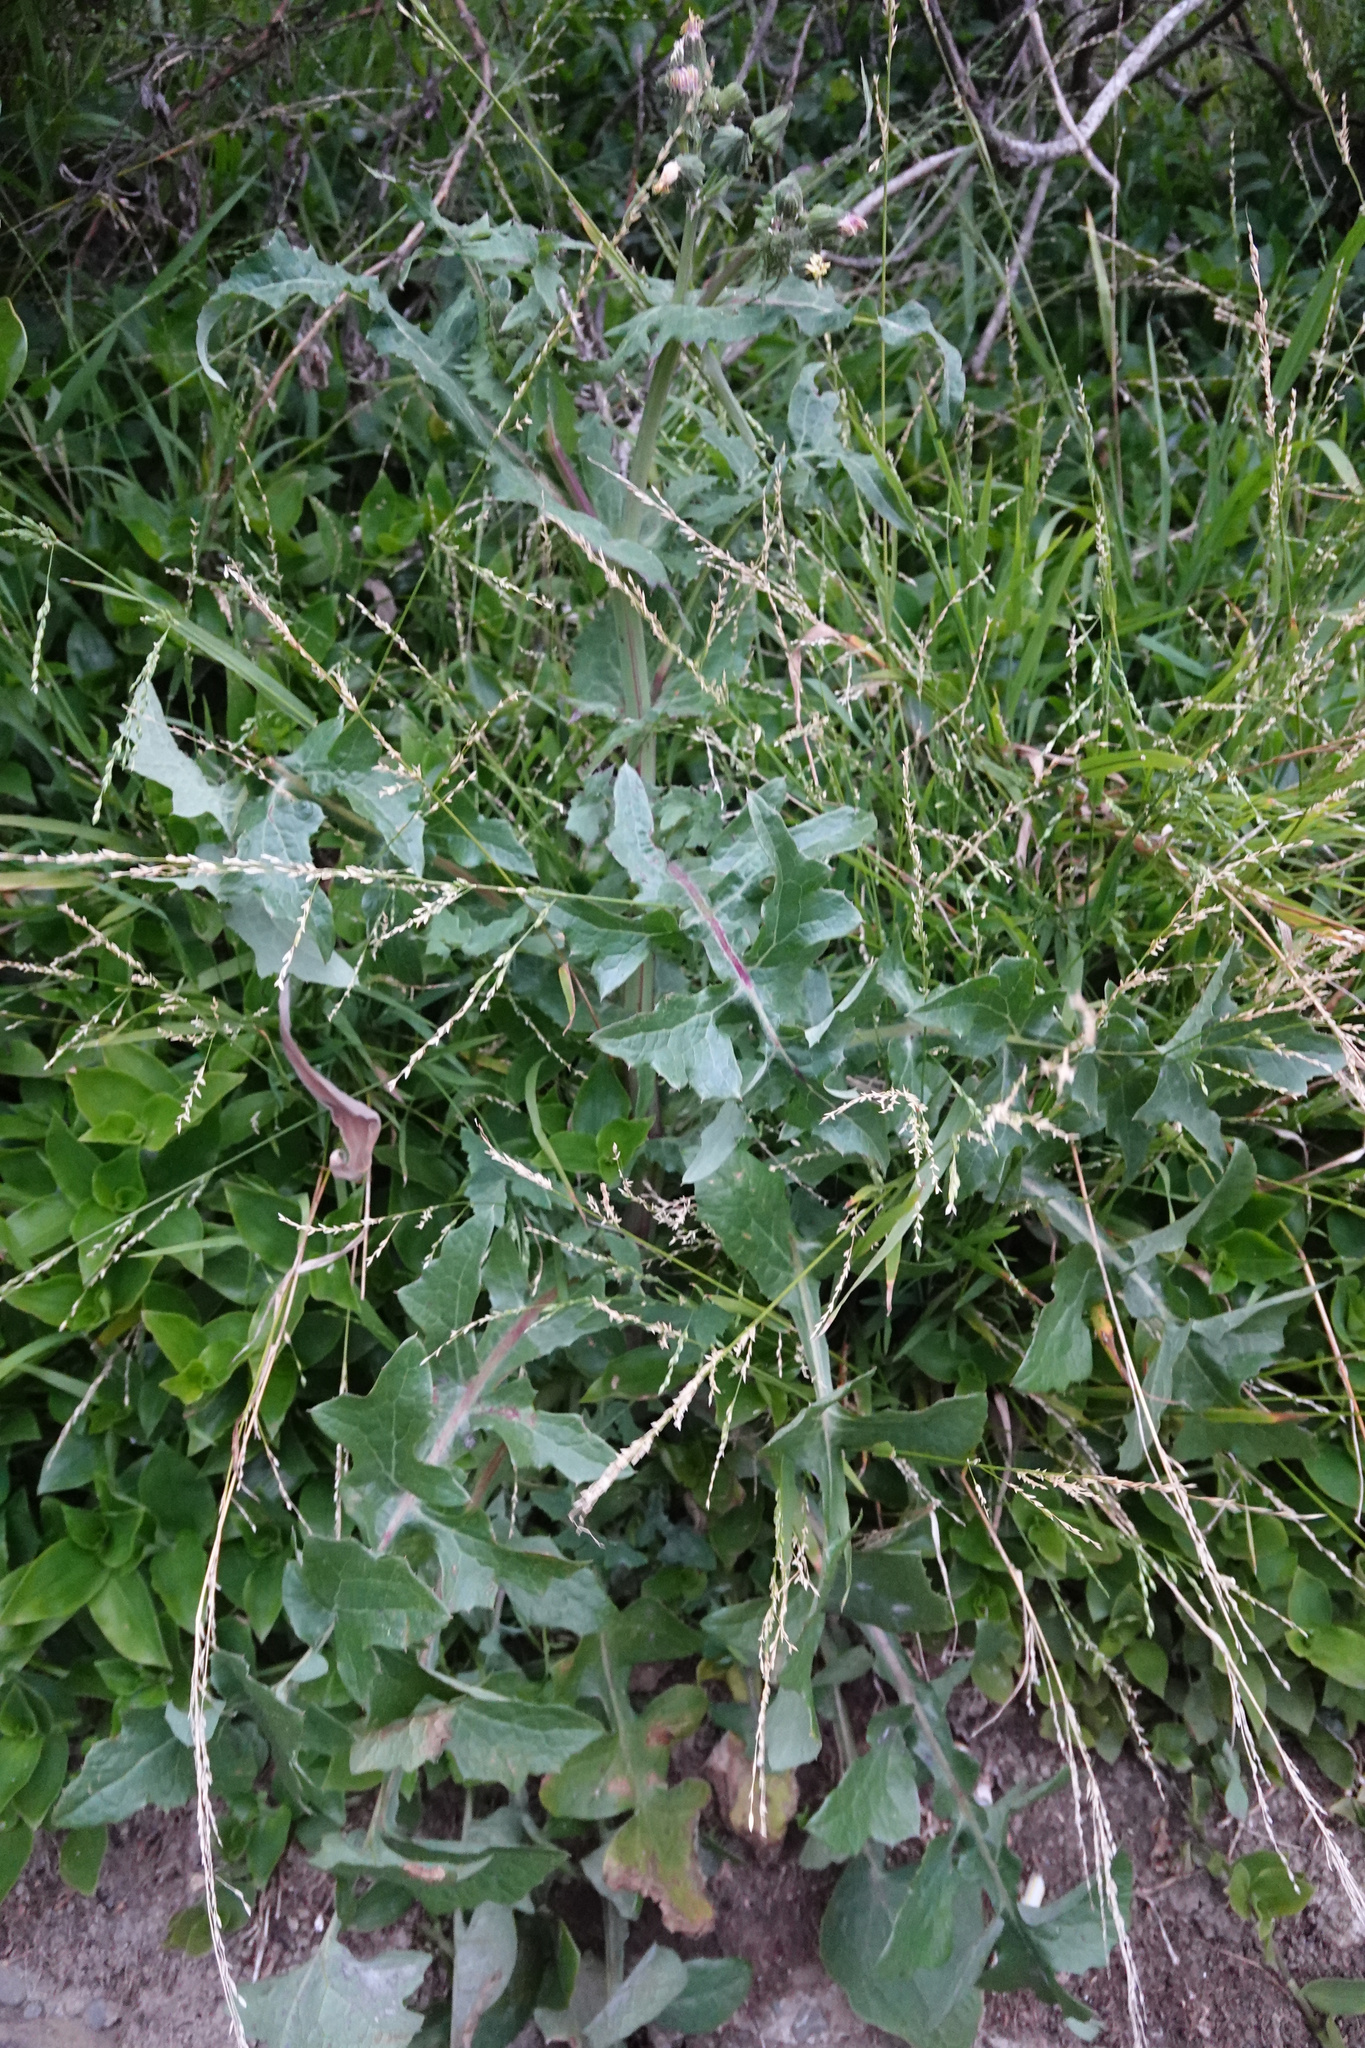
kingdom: Plantae
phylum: Tracheophyta
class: Magnoliopsida
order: Asterales
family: Asteraceae
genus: Sonchus
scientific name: Sonchus oleraceus
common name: Common sowthistle
